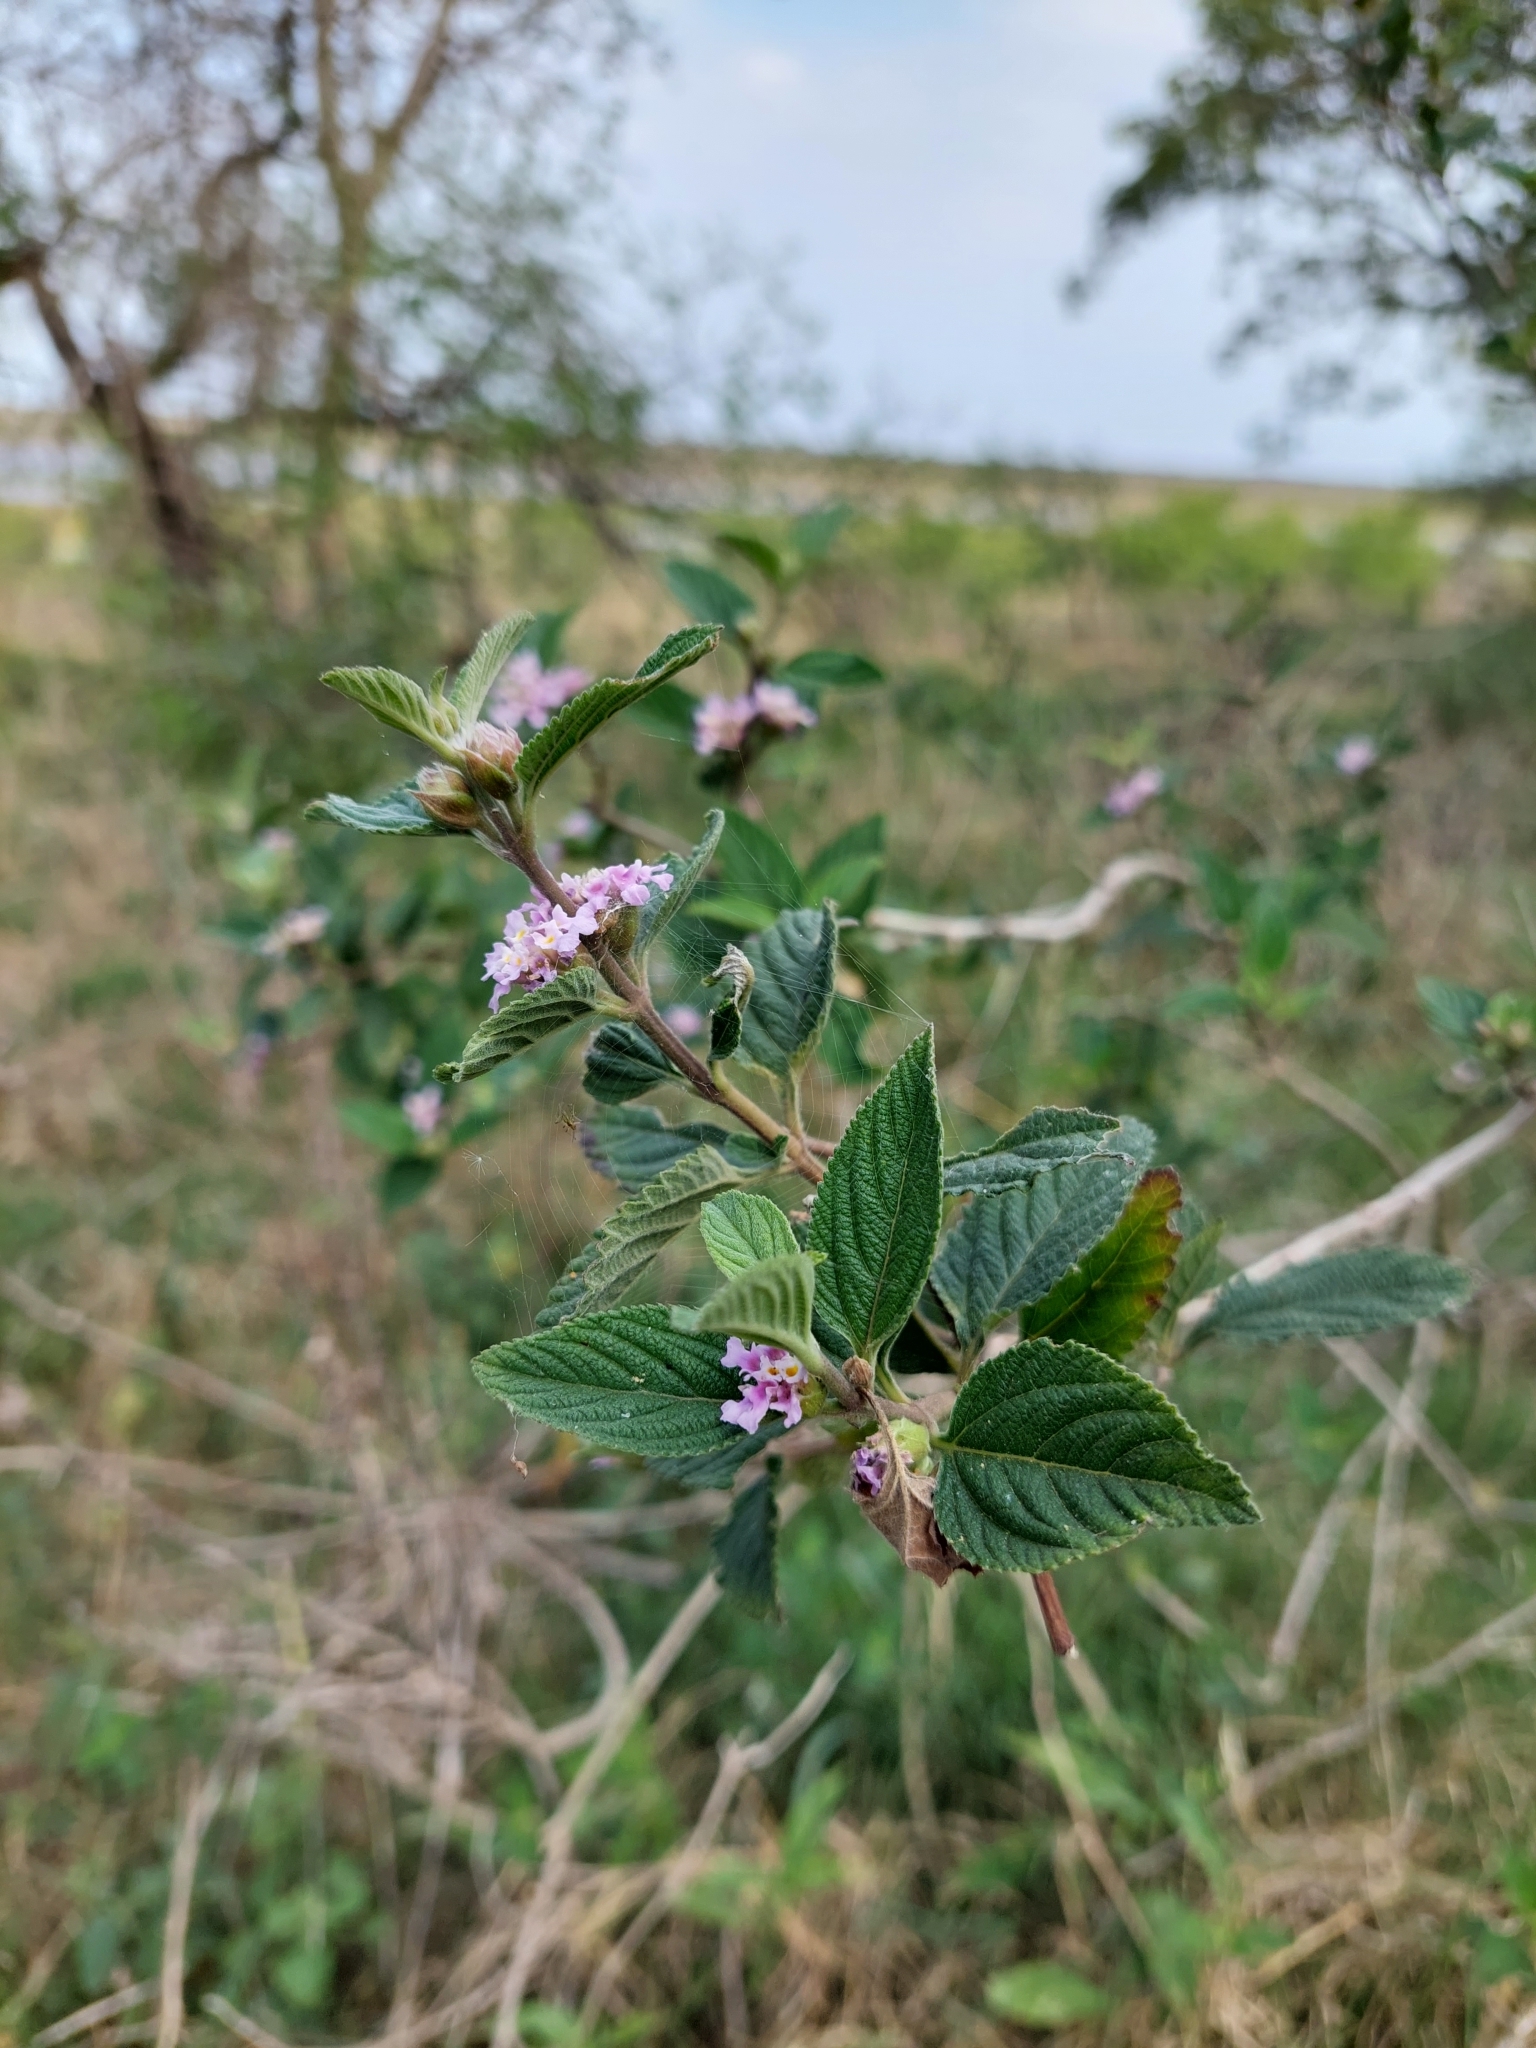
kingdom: Plantae
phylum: Tracheophyta
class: Magnoliopsida
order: Lamiales
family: Verbenaceae
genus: Lippia
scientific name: Lippia alba
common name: Bushy matgrass
